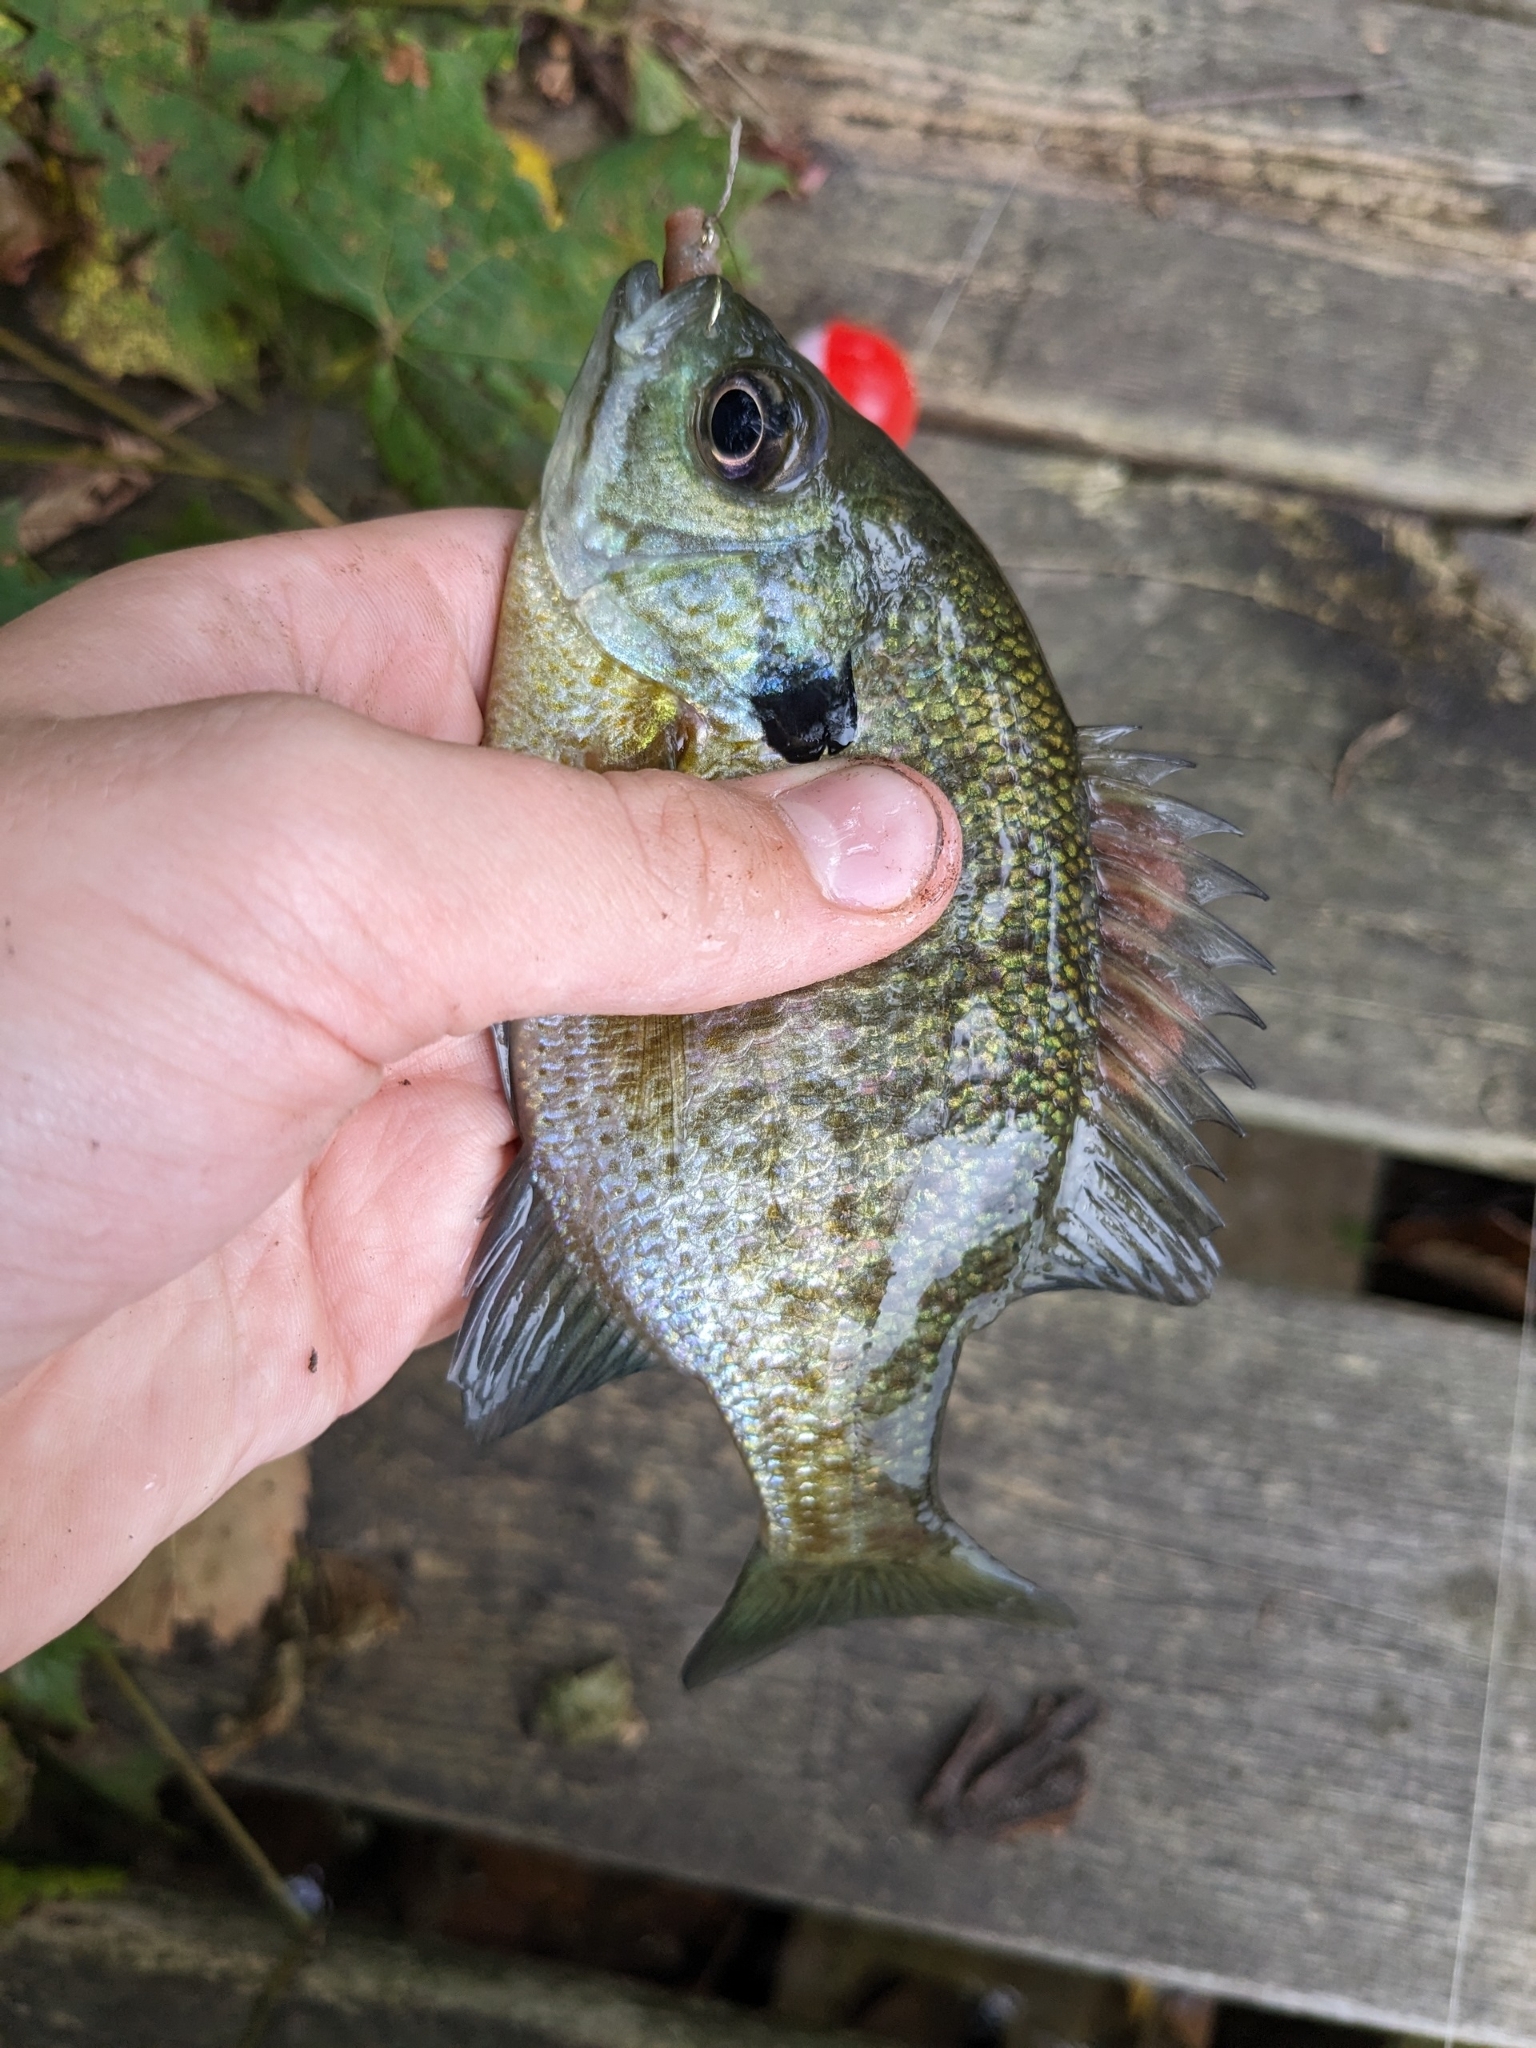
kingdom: Animalia
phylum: Chordata
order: Perciformes
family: Centrarchidae
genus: Lepomis
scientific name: Lepomis macrochirus
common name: Bluegill
